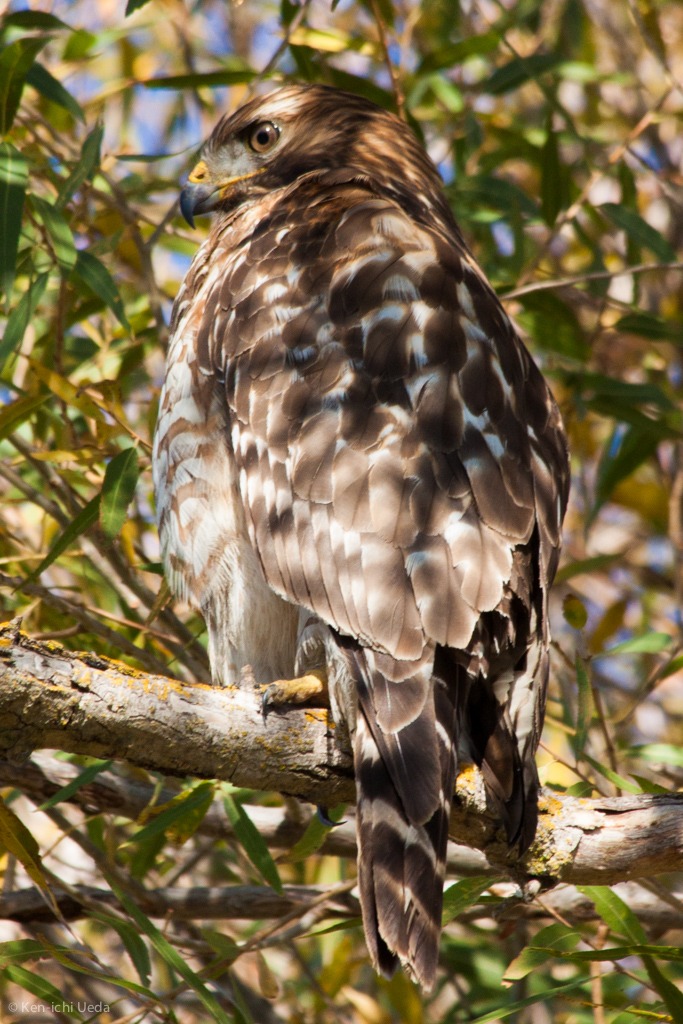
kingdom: Animalia
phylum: Chordata
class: Aves
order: Accipitriformes
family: Accipitridae
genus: Buteo
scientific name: Buteo lineatus
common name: Red-shouldered hawk
